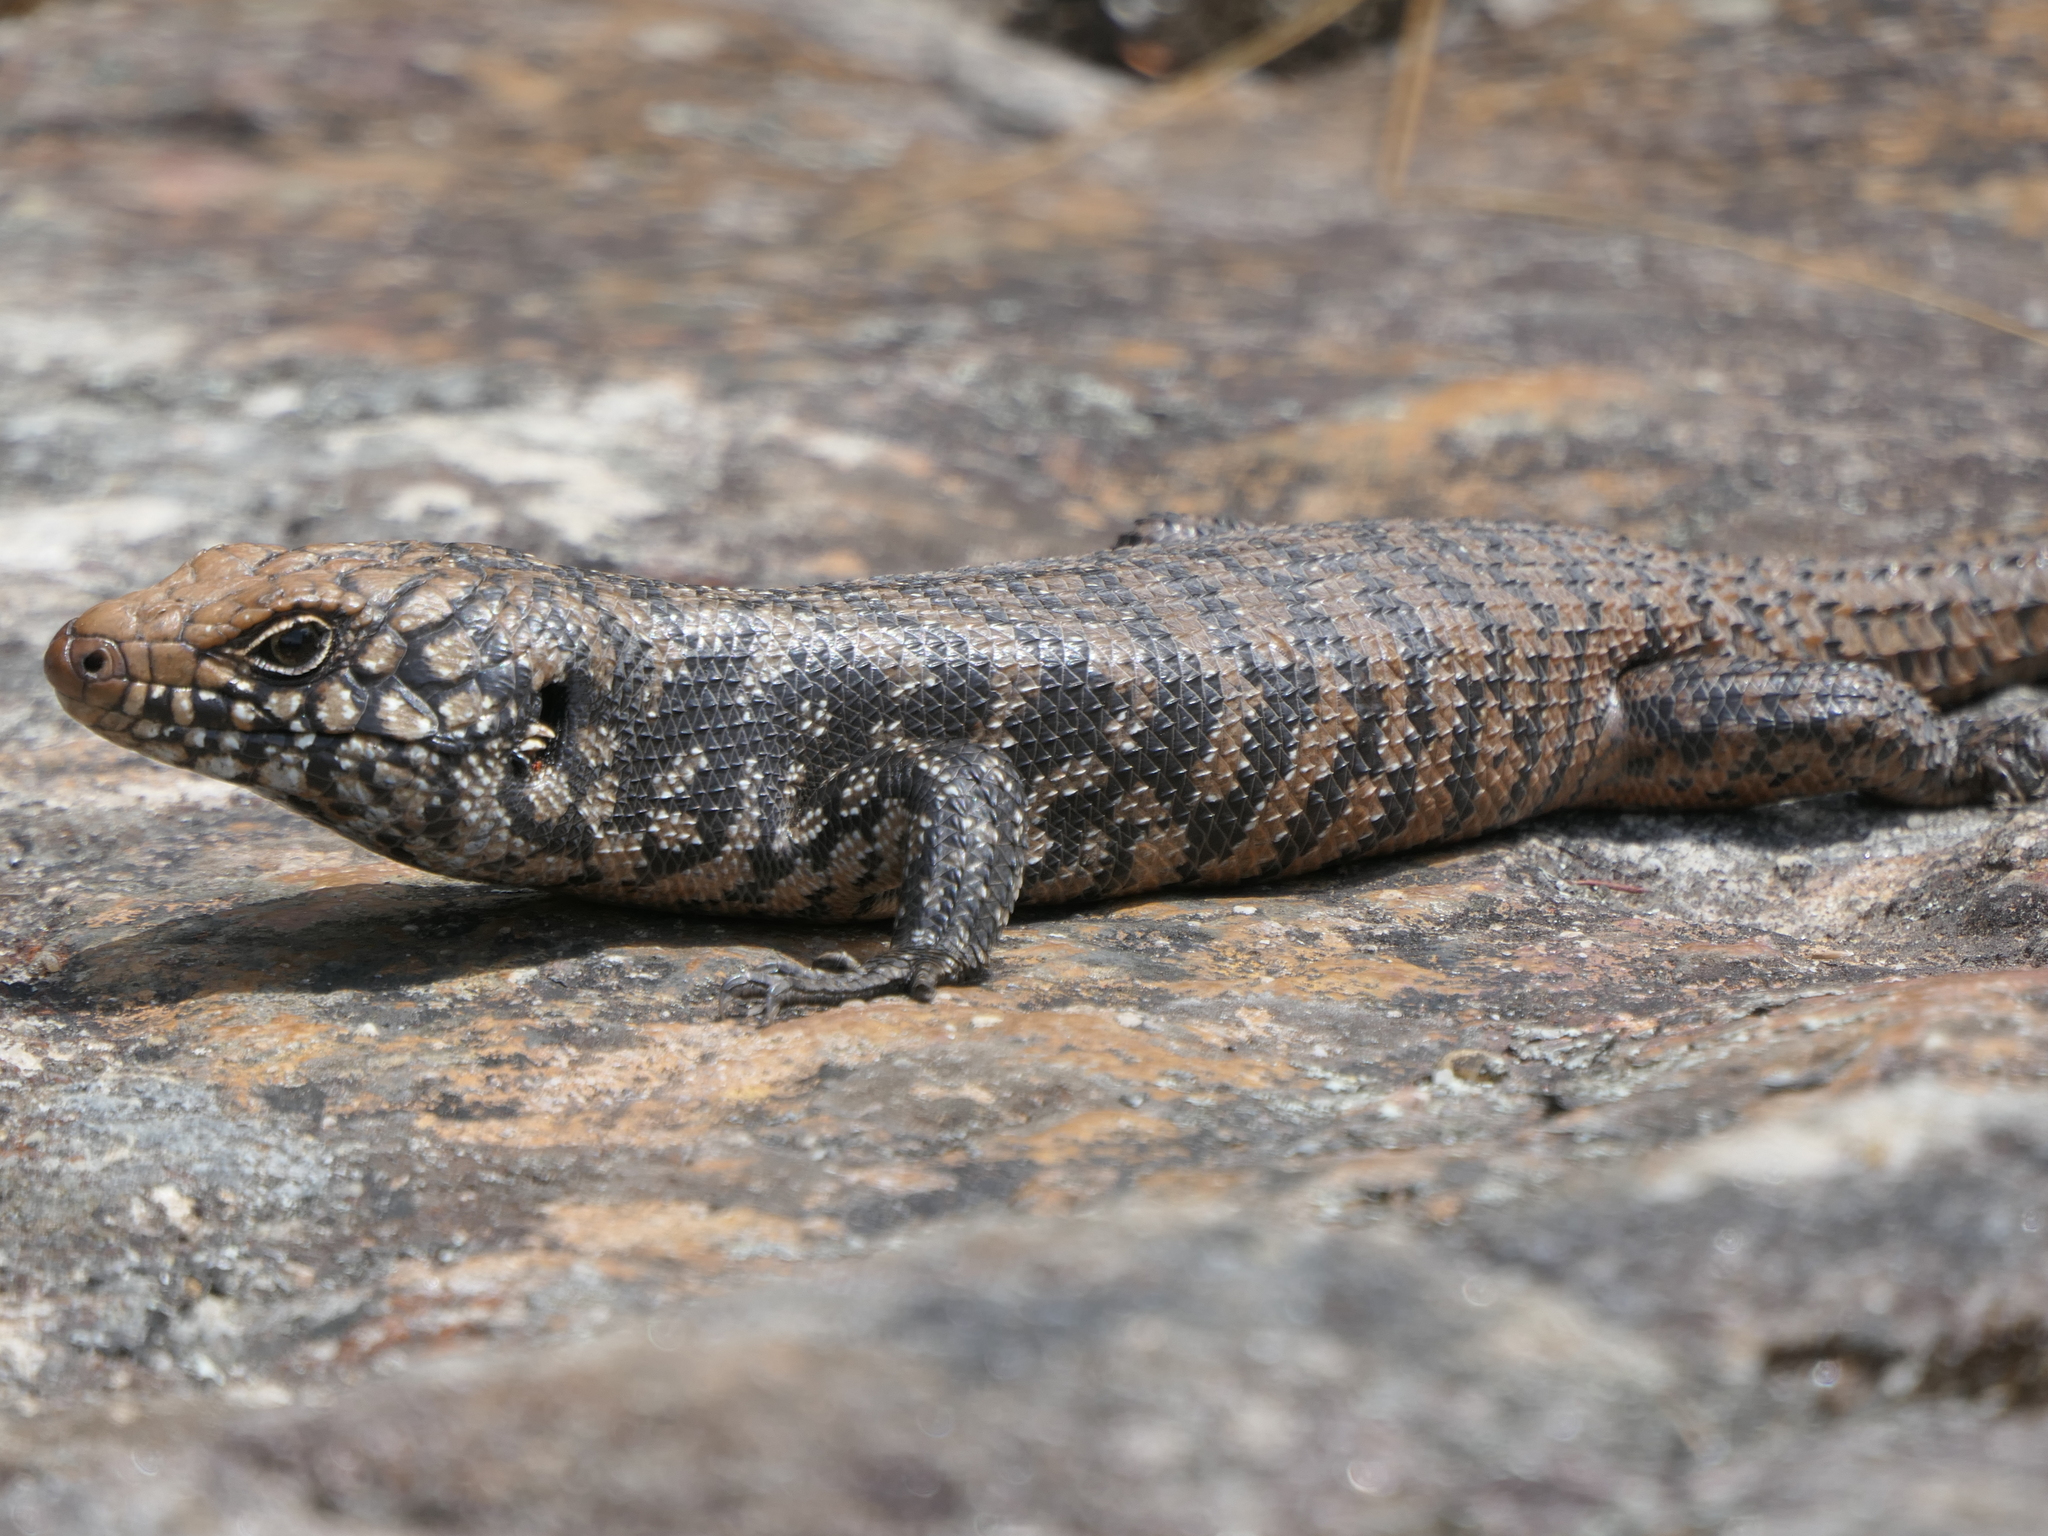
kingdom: Animalia
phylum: Chordata
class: Squamata
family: Scincidae
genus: Egernia
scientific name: Egernia cunninghami
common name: Cunningham's skink
